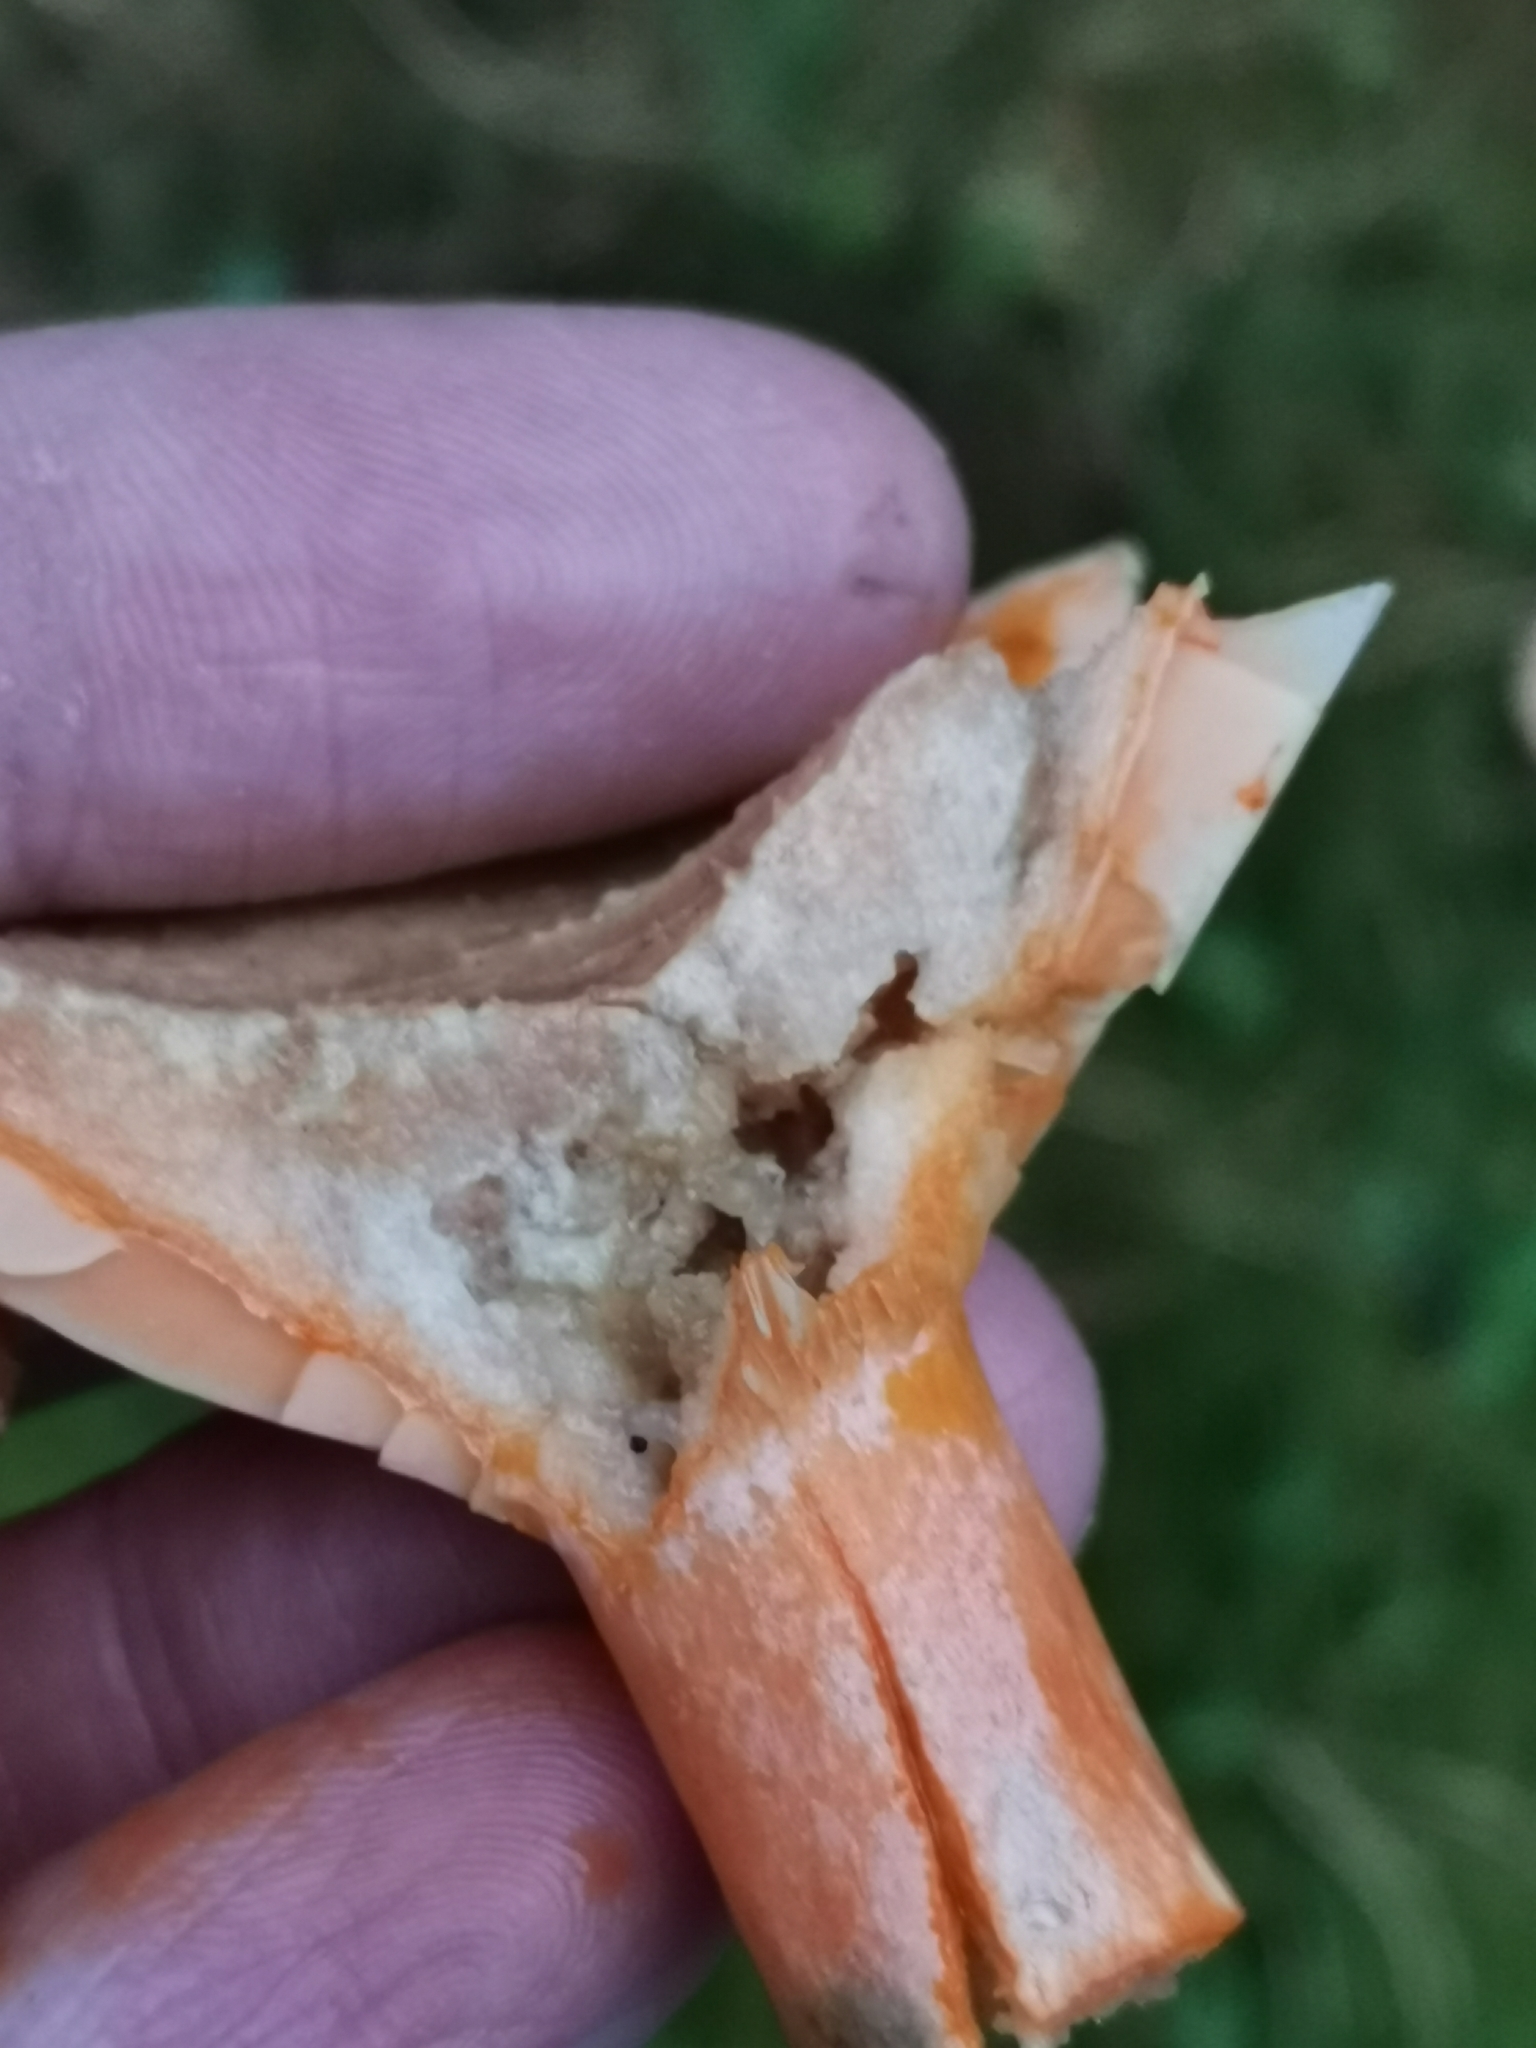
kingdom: Fungi
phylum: Basidiomycota
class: Agaricomycetes
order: Russulales
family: Russulaceae
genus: Lactarius
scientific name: Lactarius deterrimus
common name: False saffron milkcap
